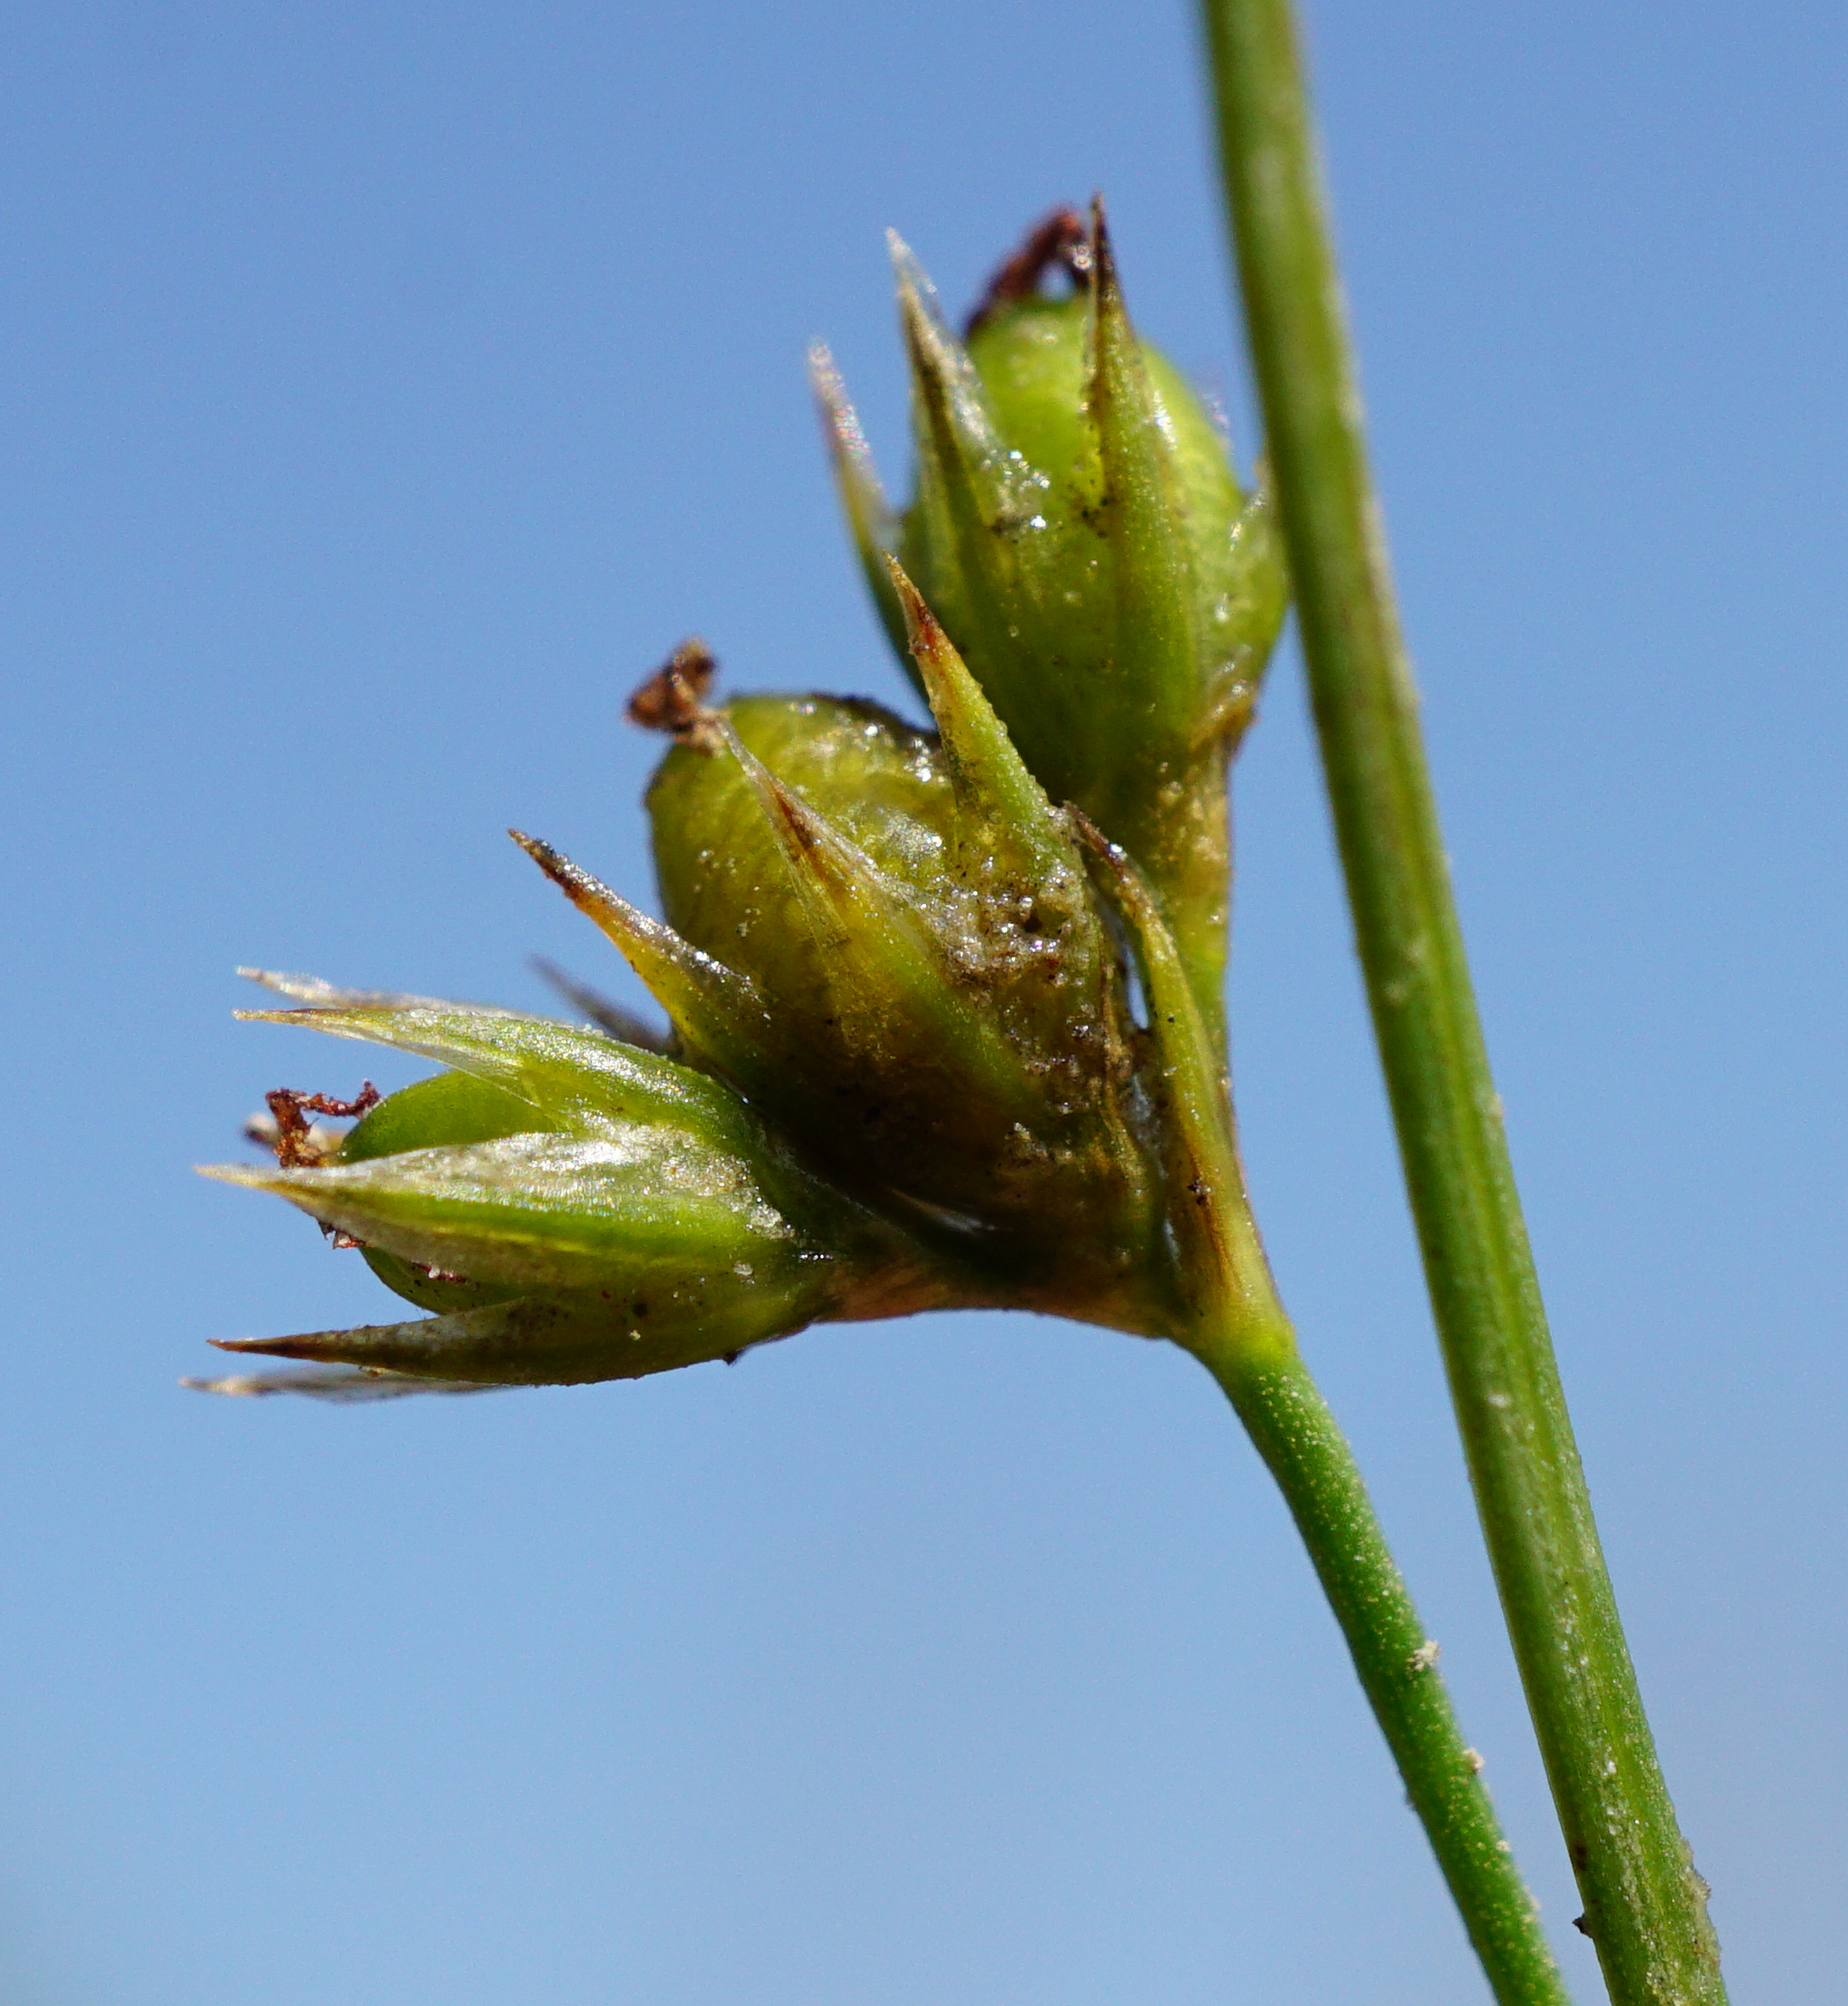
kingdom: Plantae
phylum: Tracheophyta
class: Liliopsida
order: Poales
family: Juncaceae
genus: Juncus
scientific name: Juncus tenuis
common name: Slender rush
